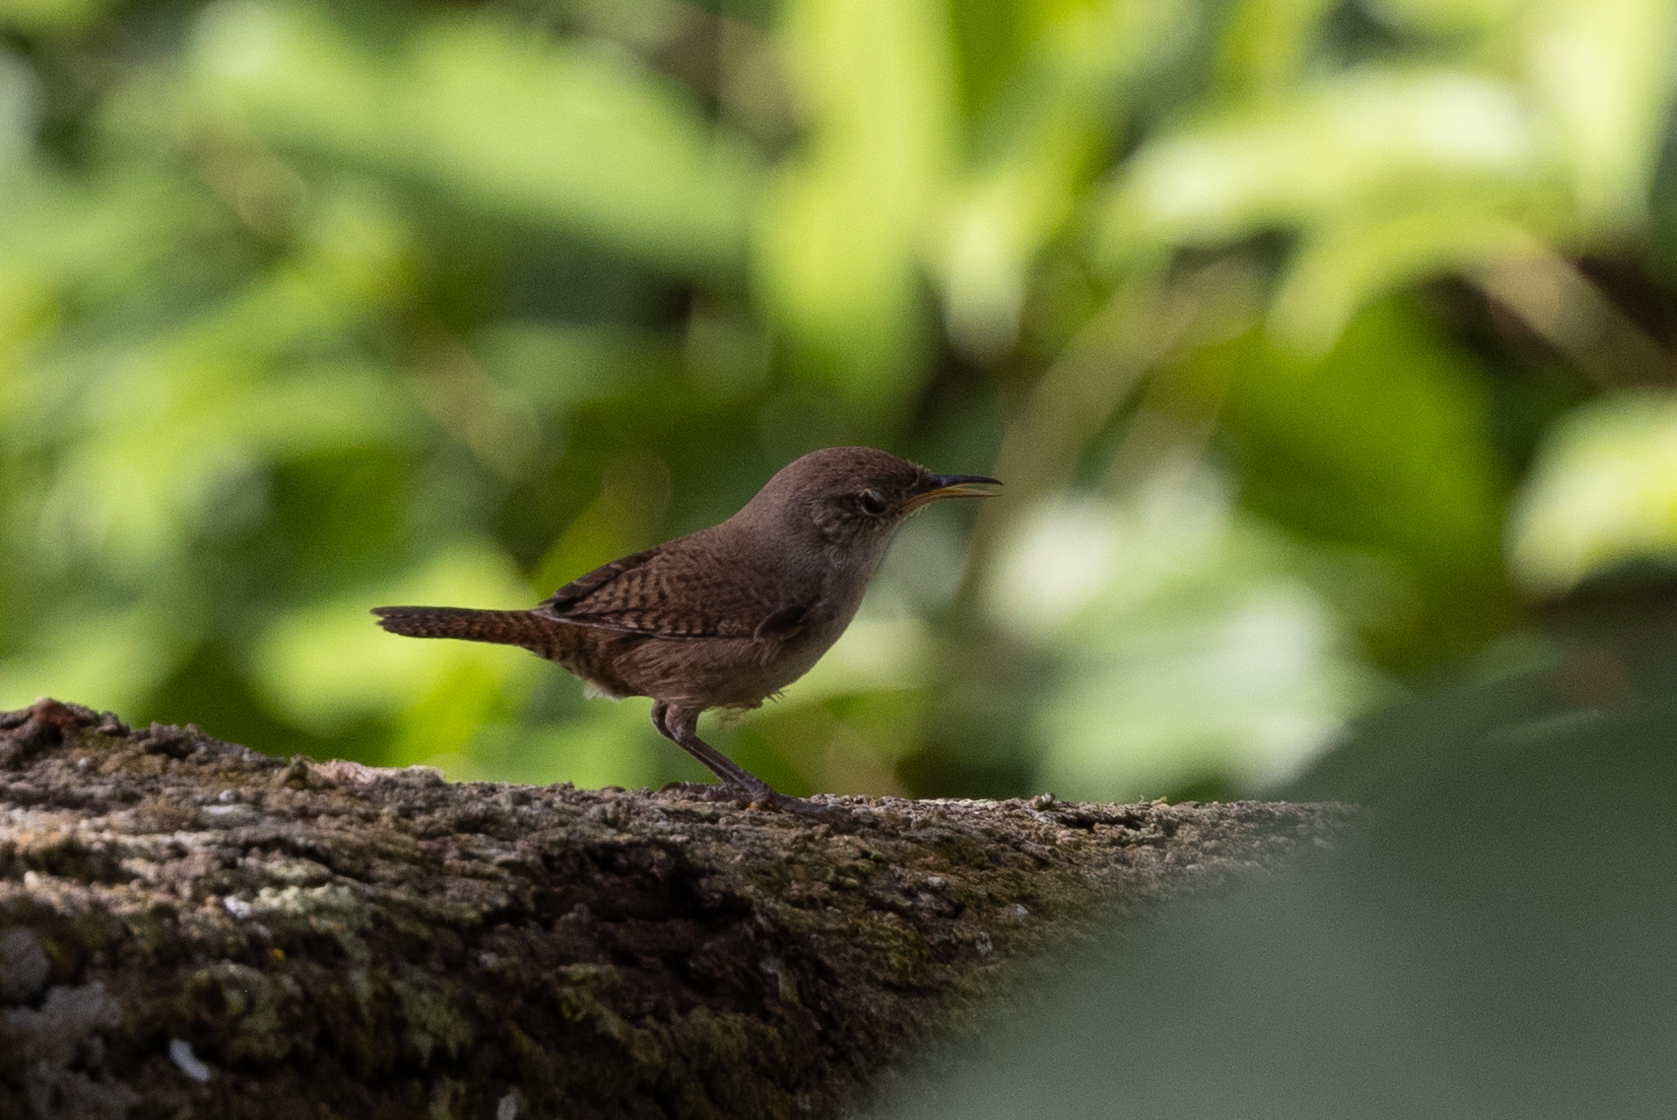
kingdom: Animalia
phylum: Chordata
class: Aves
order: Passeriformes
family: Troglodytidae
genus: Troglodytes
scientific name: Troglodytes aedon
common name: House wren
